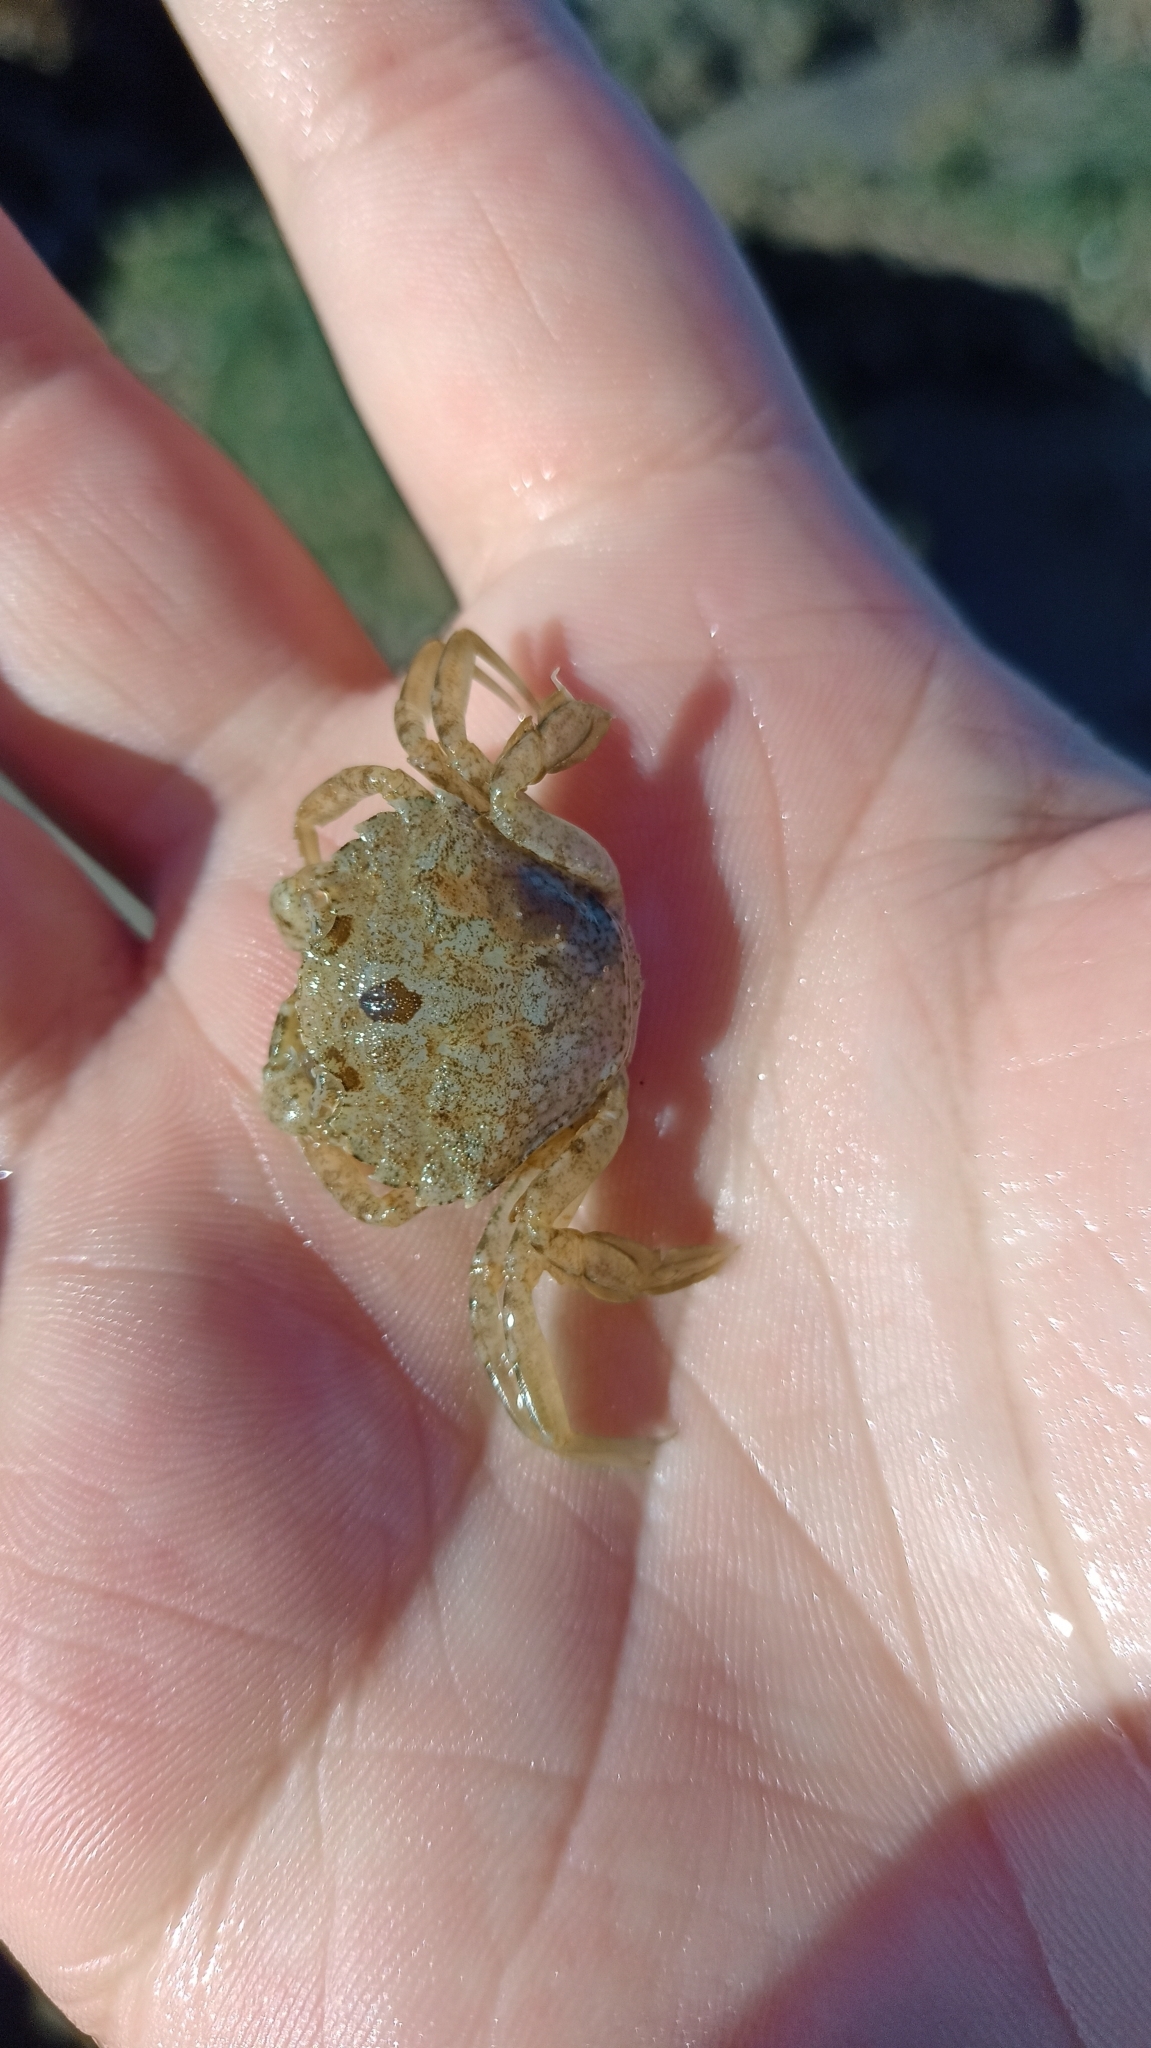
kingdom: Animalia
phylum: Arthropoda
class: Malacostraca
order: Decapoda
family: Carcinidae
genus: Carcinus
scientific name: Carcinus maenas
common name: European green crab
